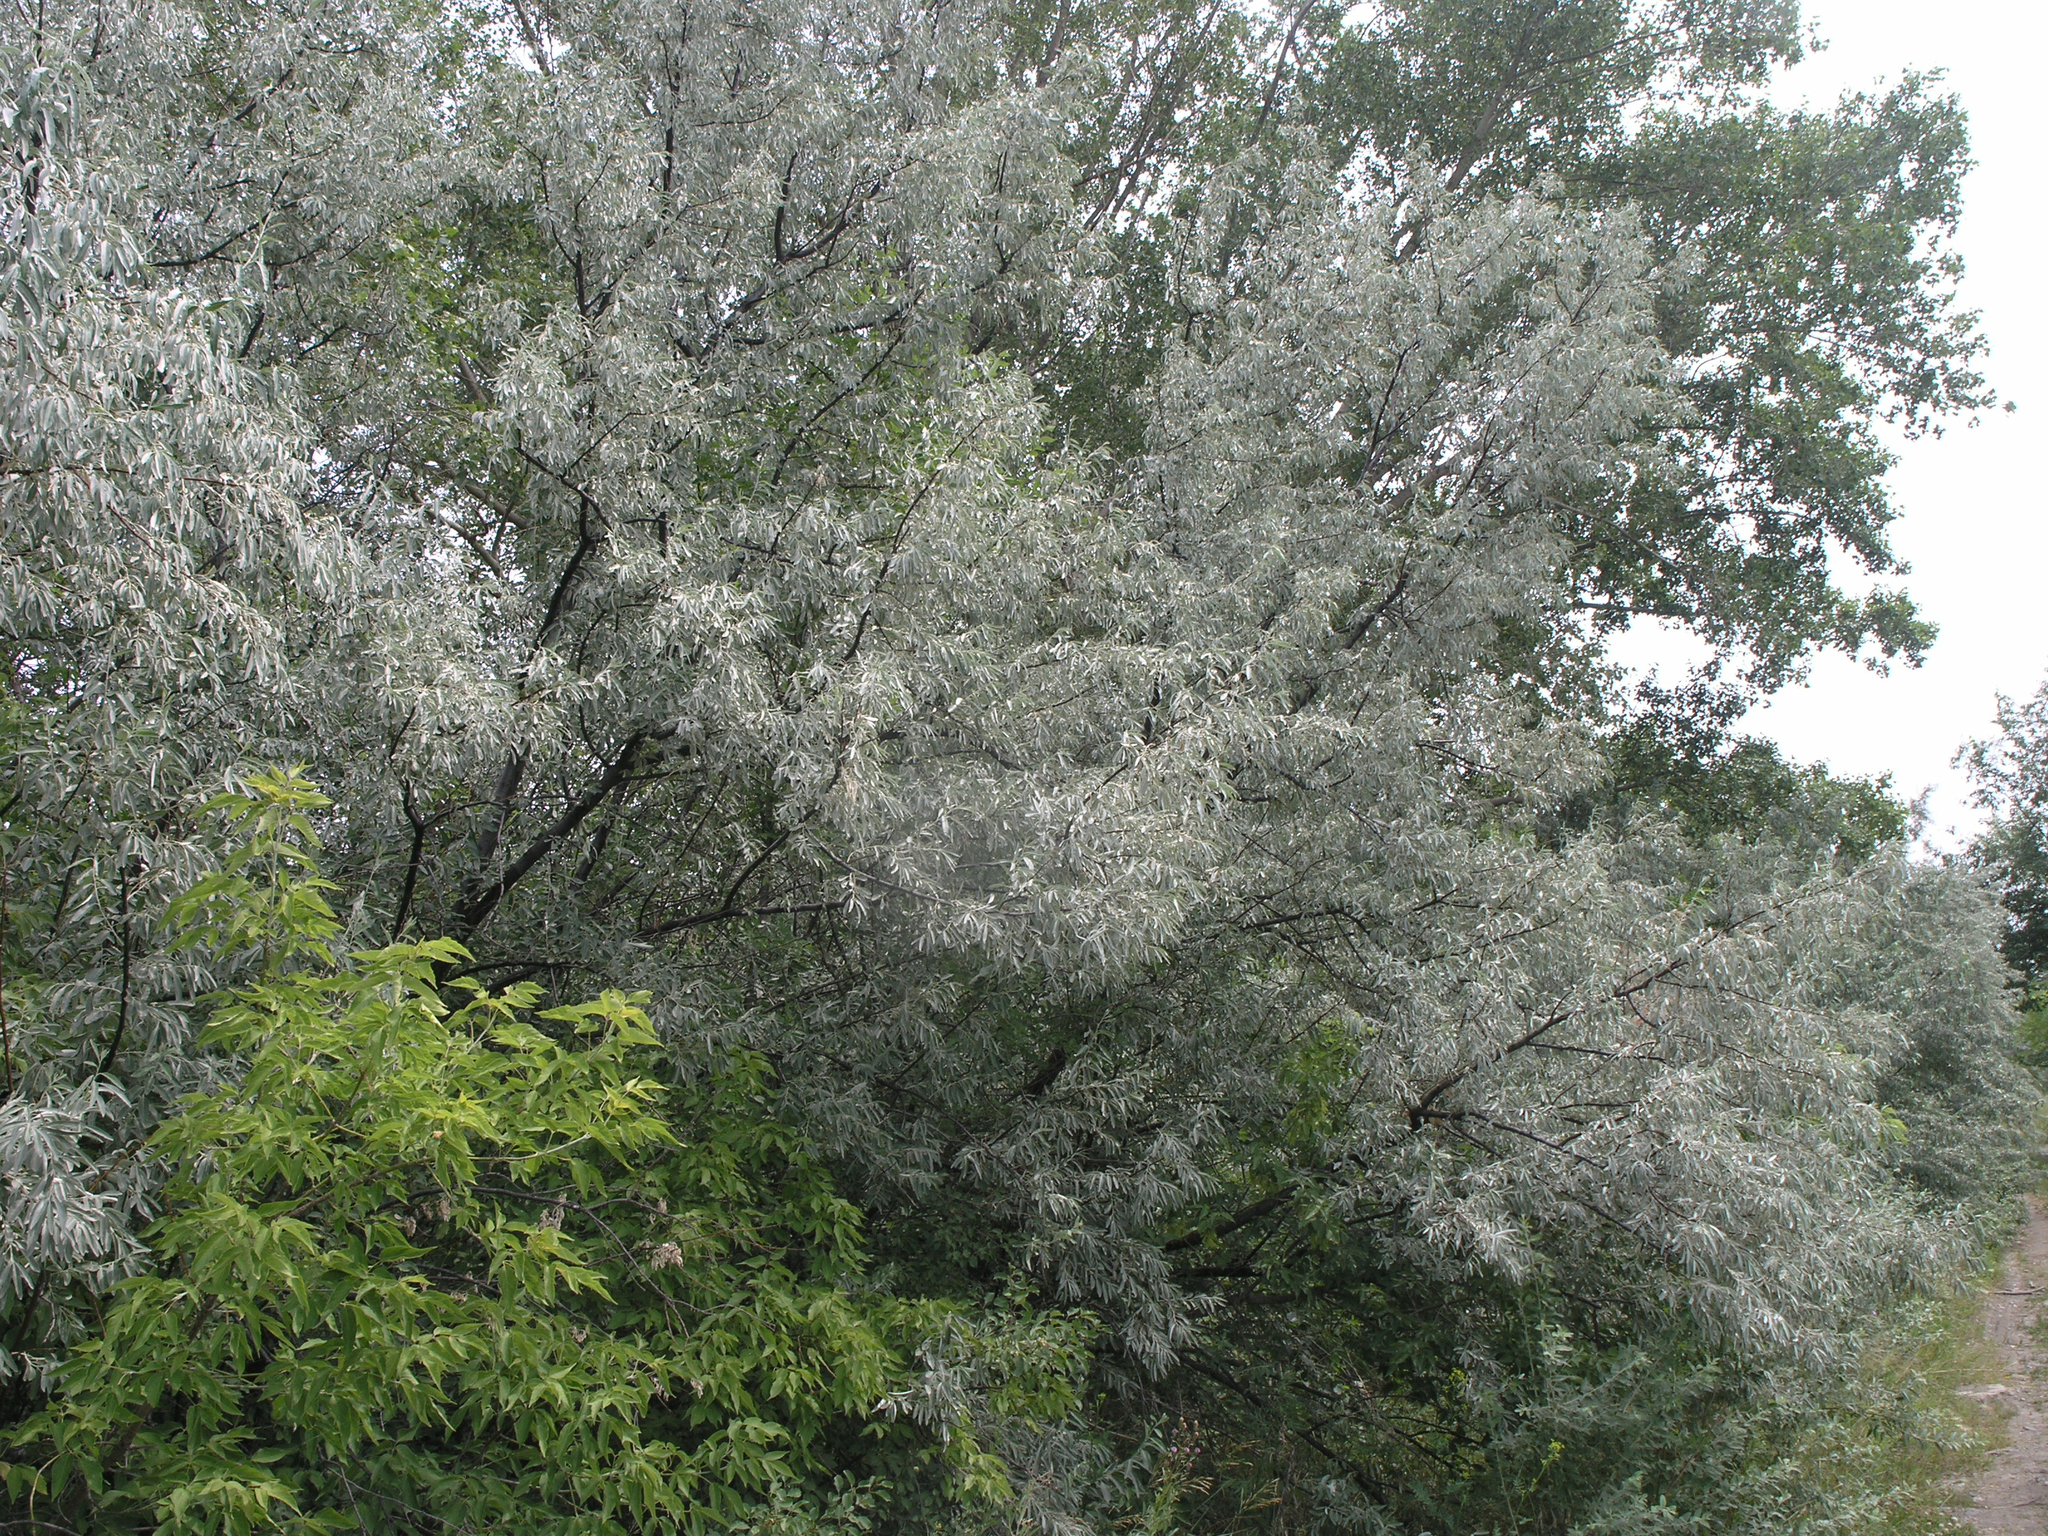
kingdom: Plantae
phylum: Tracheophyta
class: Magnoliopsida
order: Rosales
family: Elaeagnaceae
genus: Elaeagnus
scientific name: Elaeagnus angustifolia
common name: Russian olive
